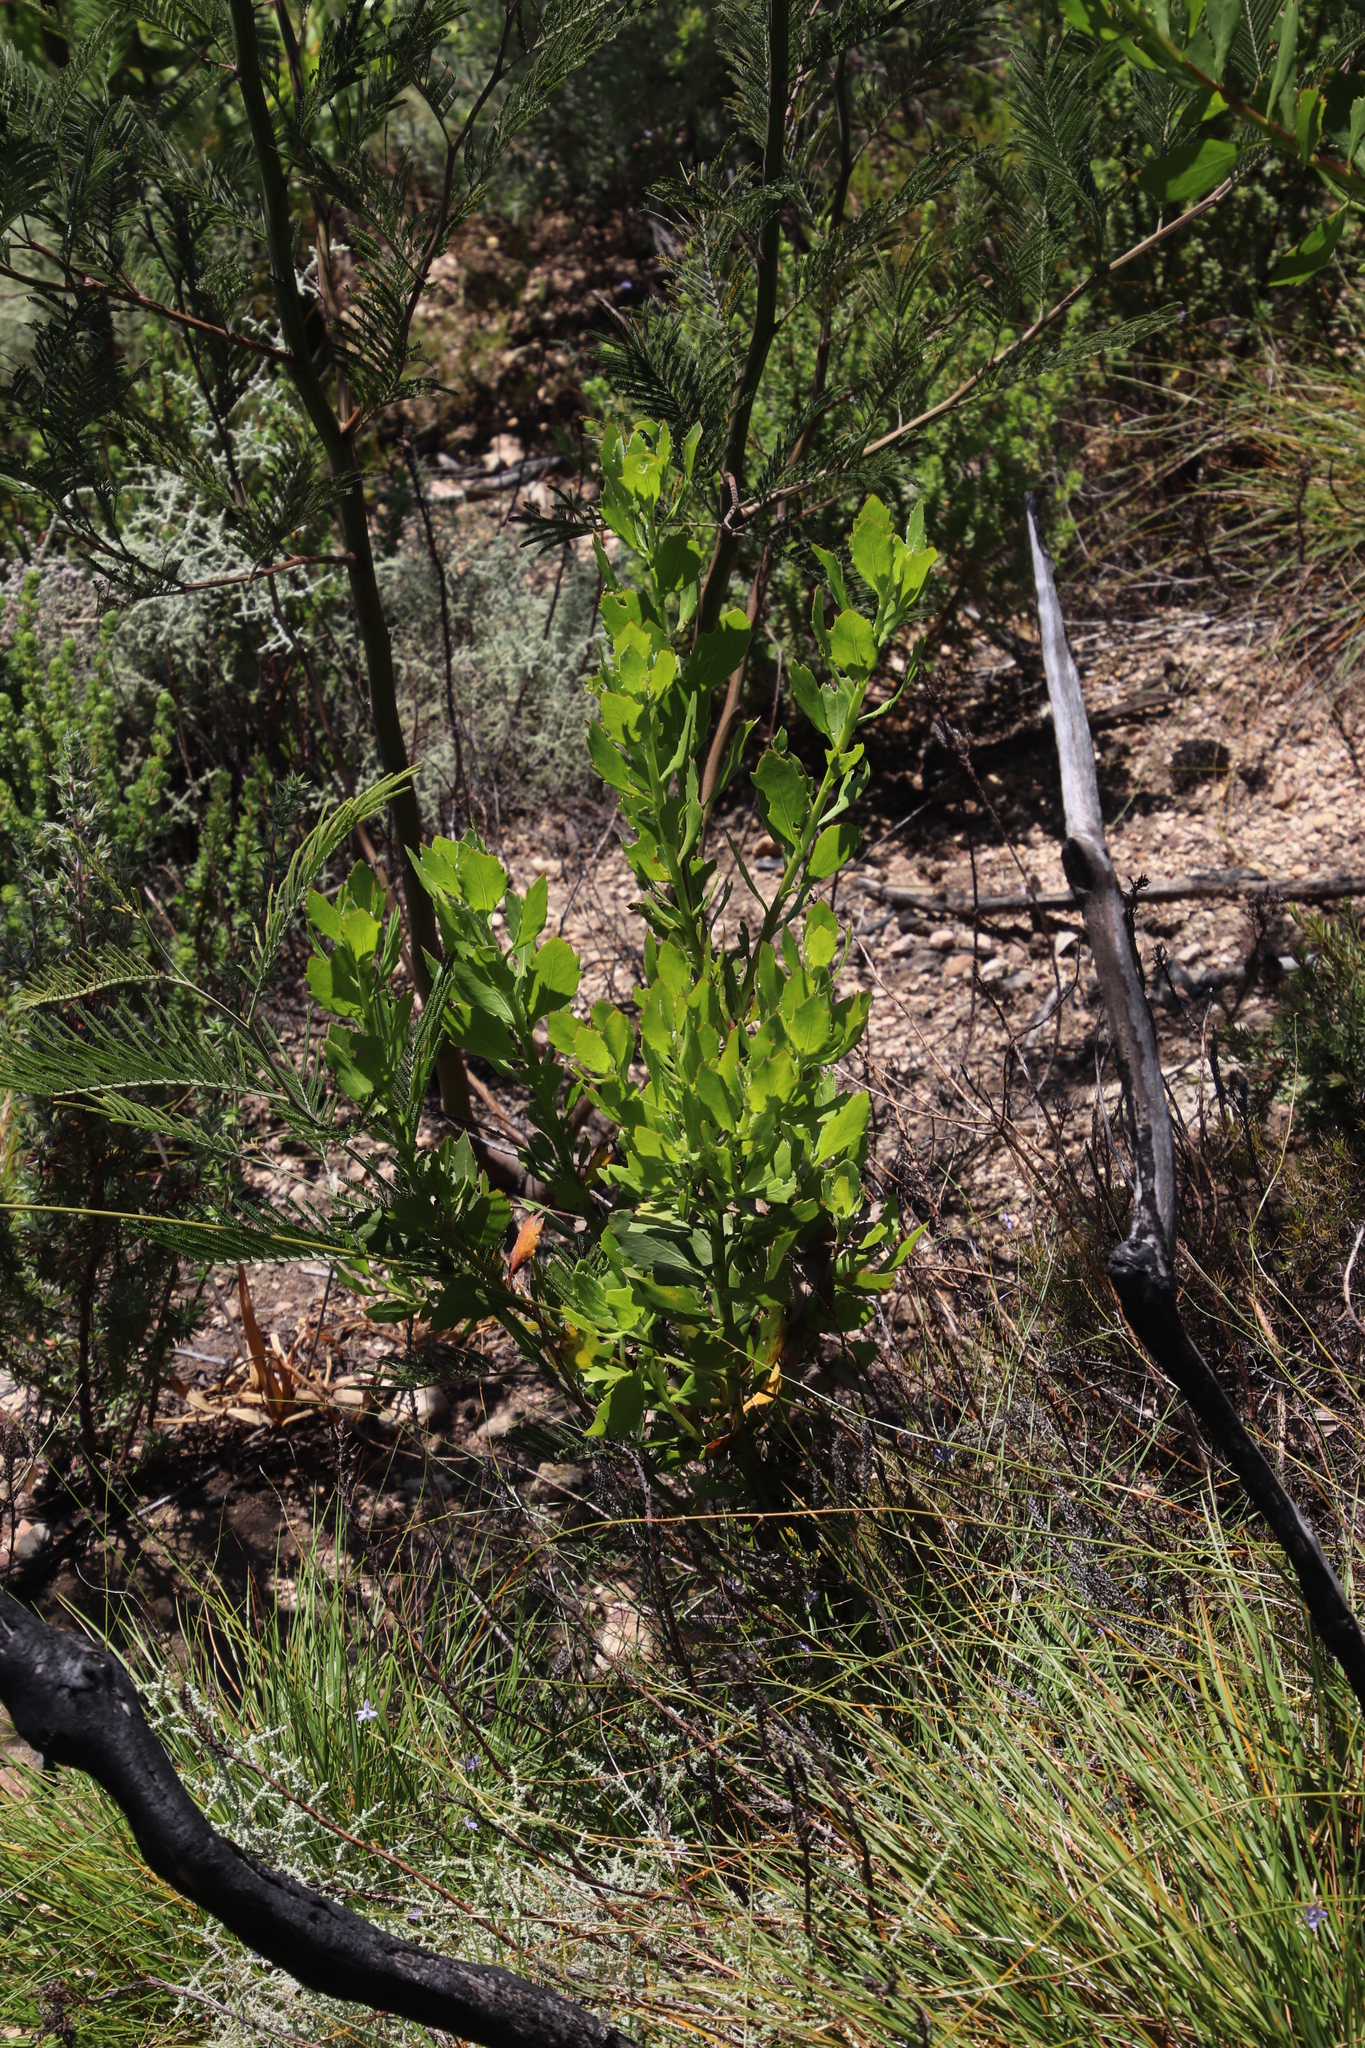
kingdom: Plantae
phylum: Tracheophyta
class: Magnoliopsida
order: Asterales
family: Asteraceae
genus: Osteospermum
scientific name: Osteospermum moniliferum
